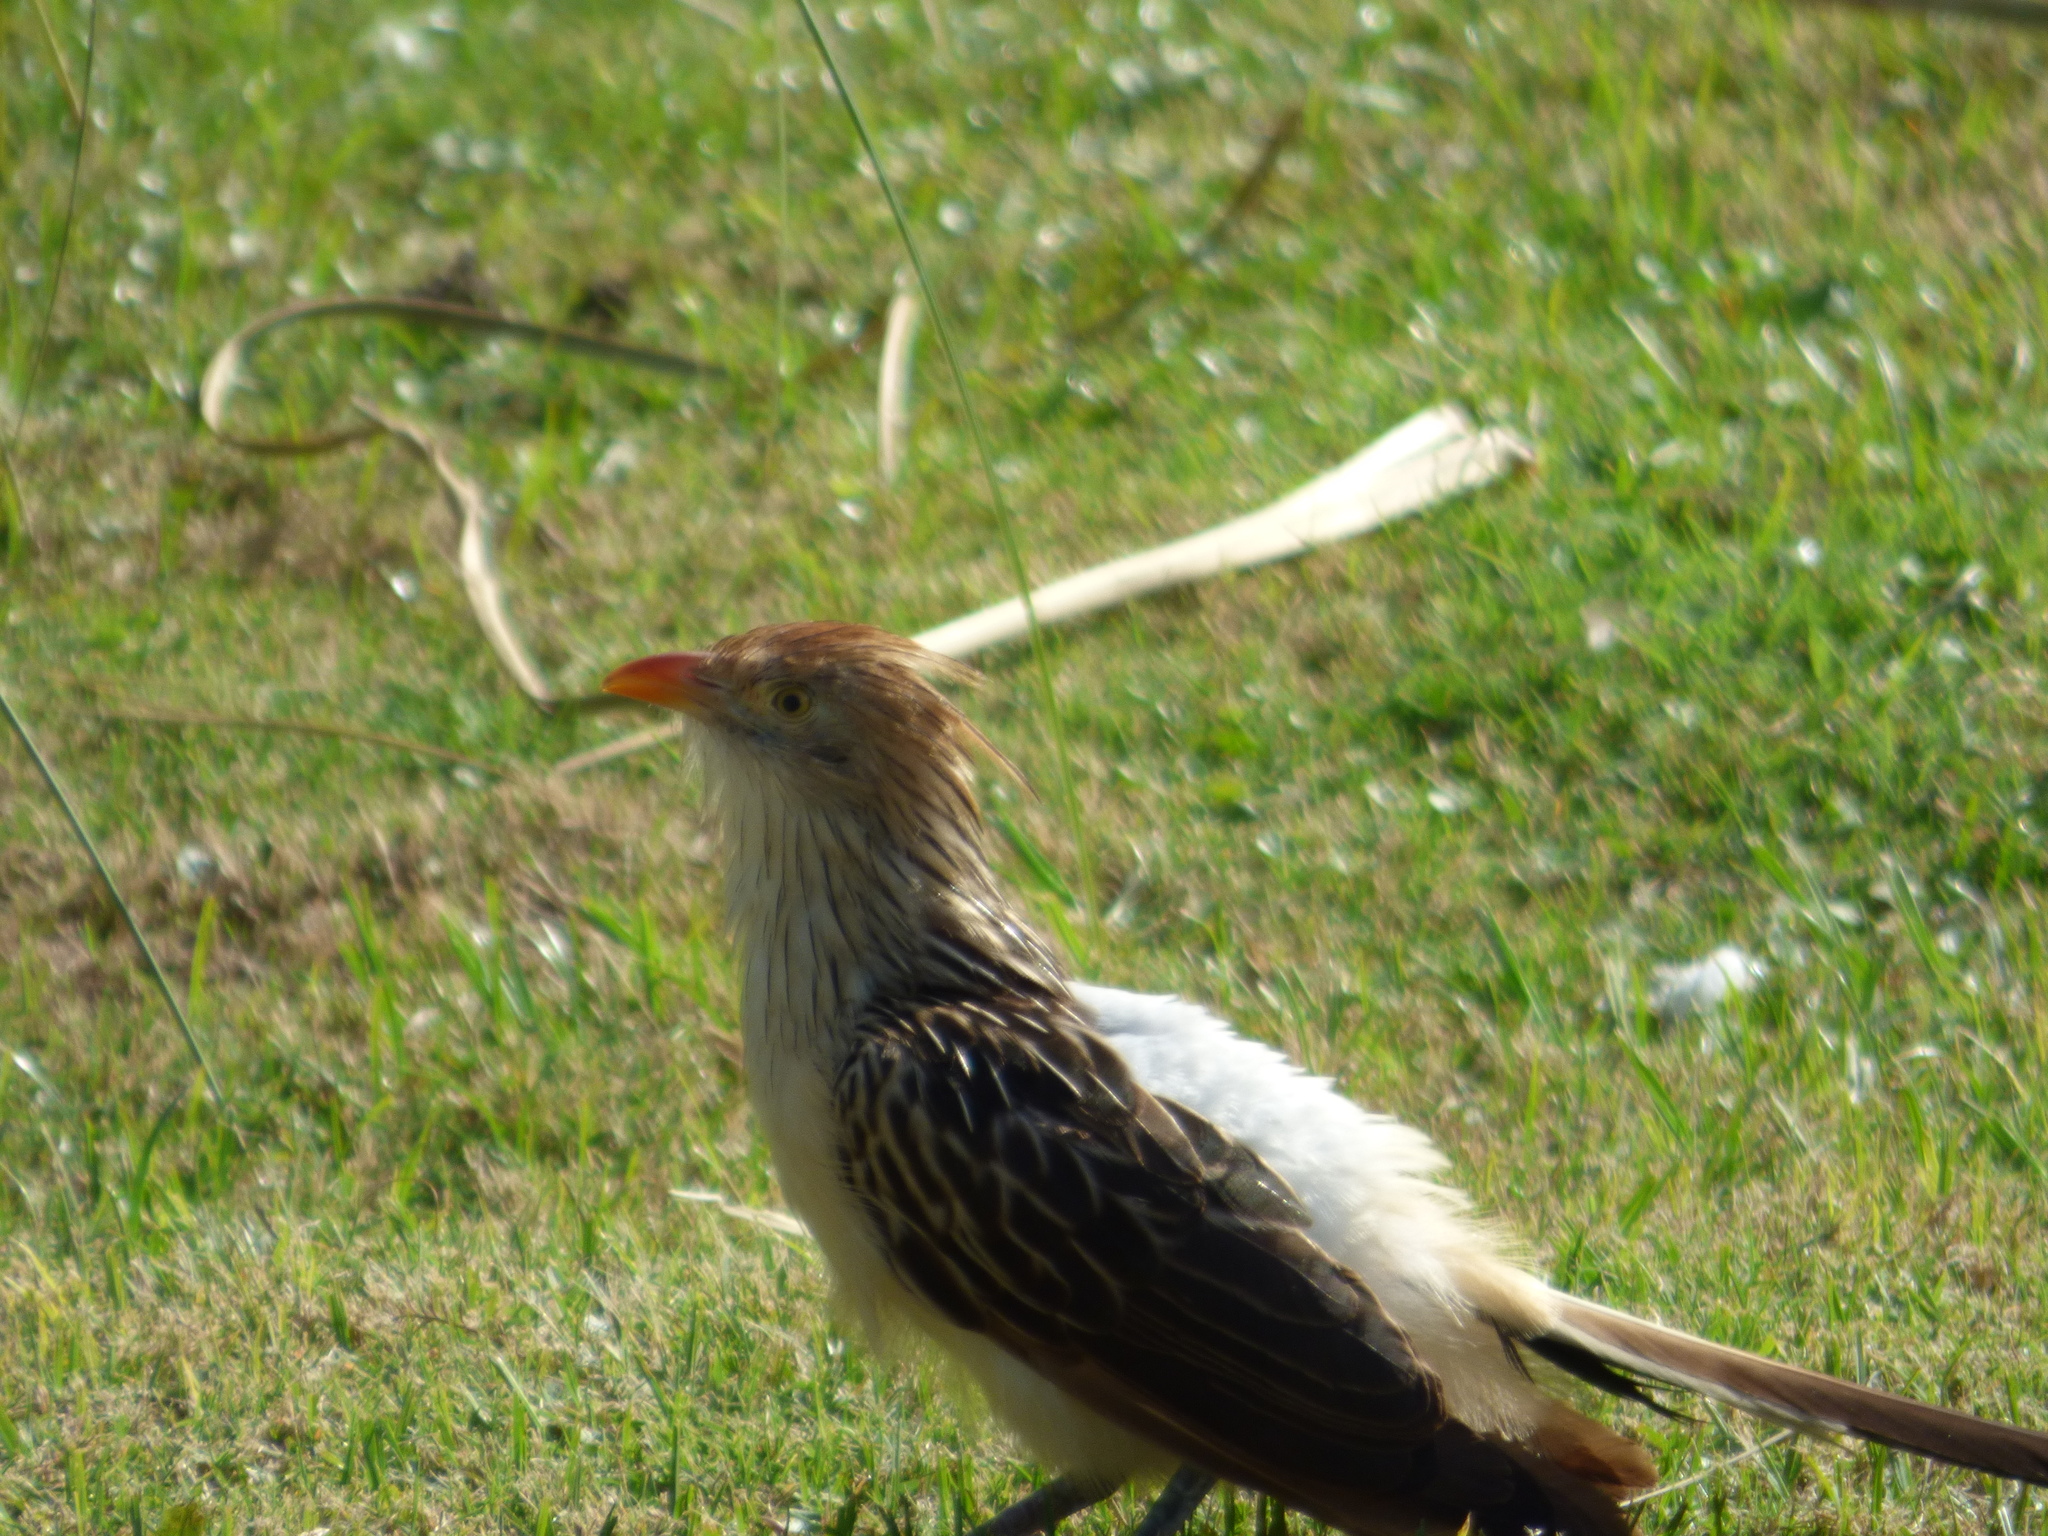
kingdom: Animalia
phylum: Chordata
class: Aves
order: Cuculiformes
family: Cuculidae
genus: Guira
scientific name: Guira guira
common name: Guira cuckoo
